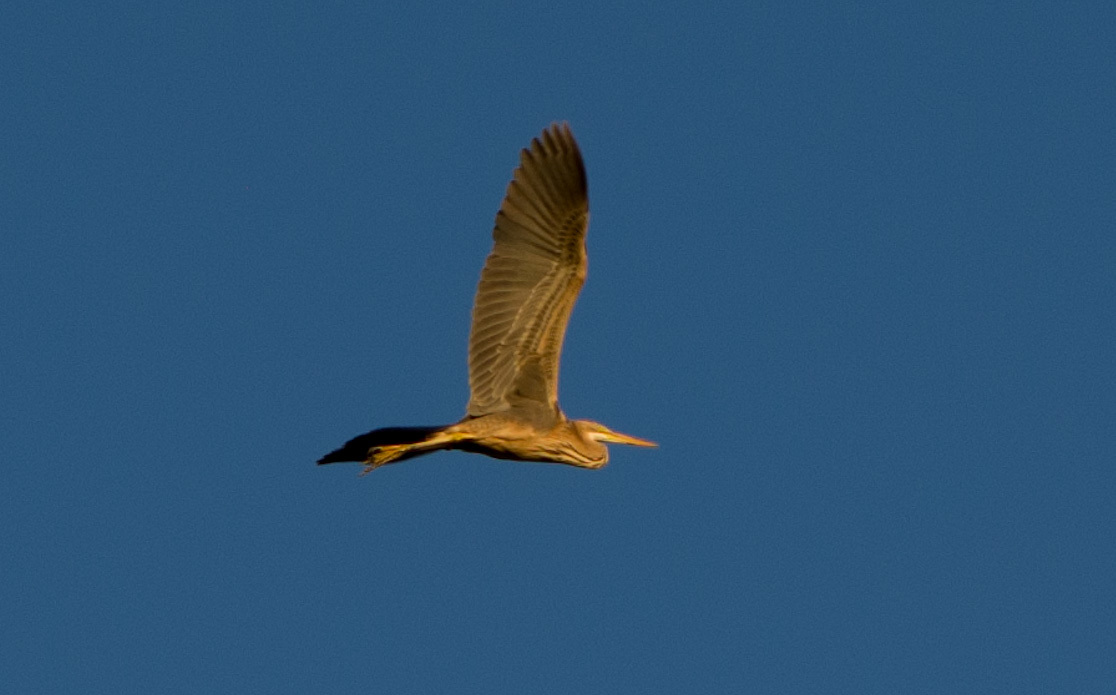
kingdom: Animalia
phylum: Chordata
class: Aves
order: Pelecaniformes
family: Ardeidae
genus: Ardea
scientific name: Ardea purpurea
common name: Purple heron
